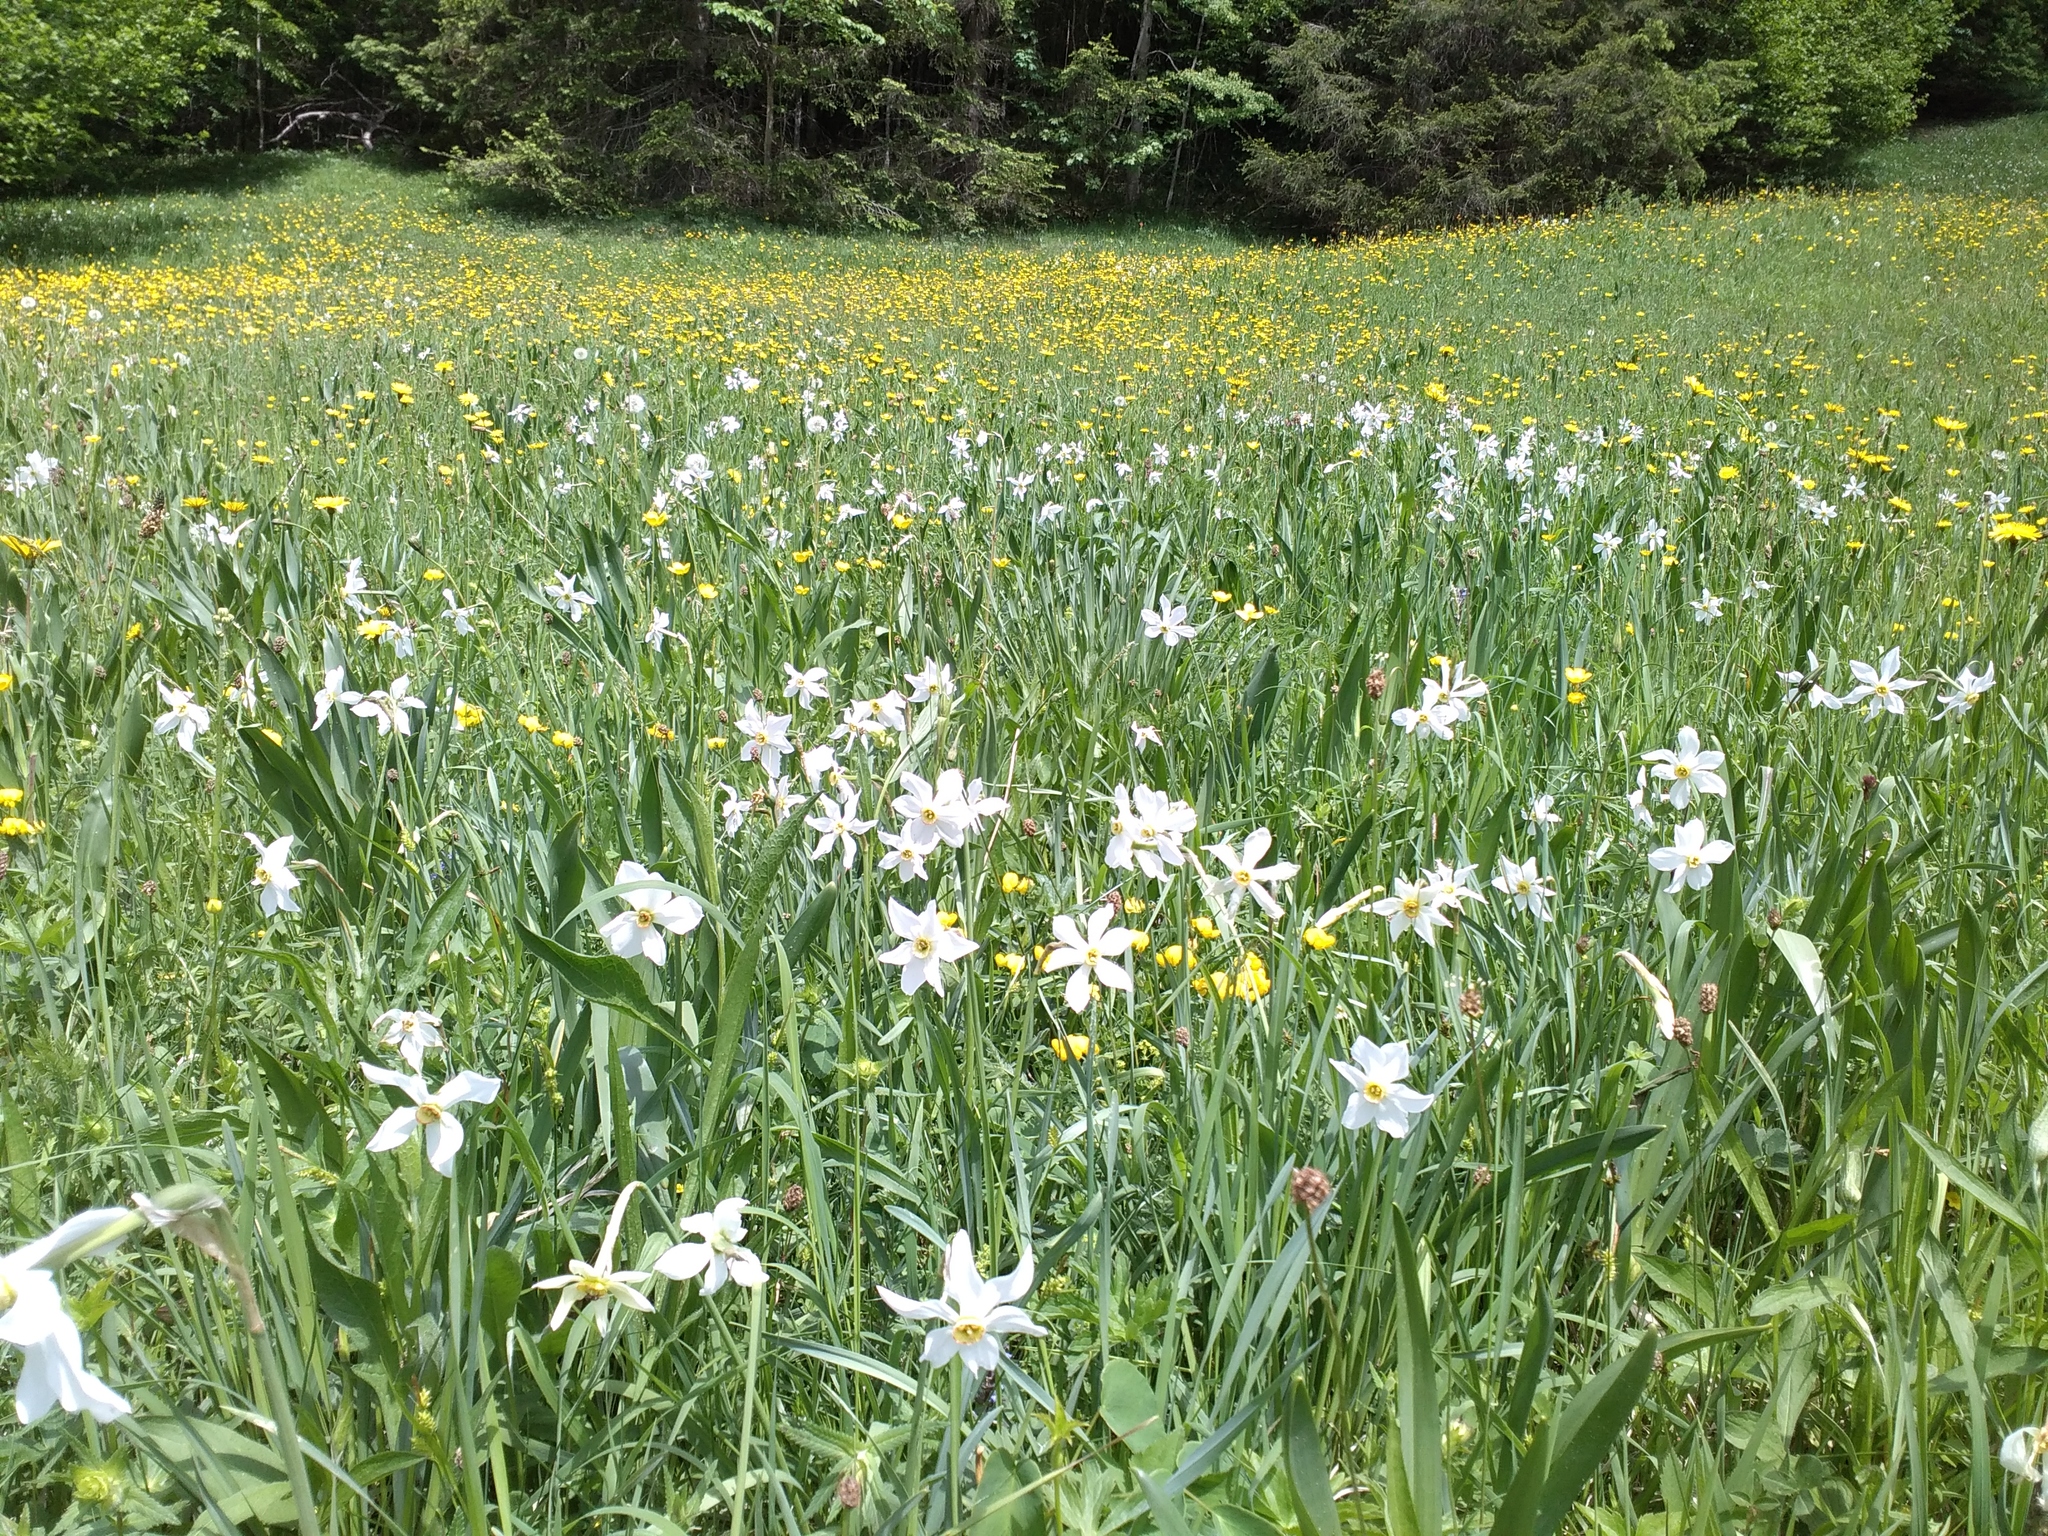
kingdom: Plantae
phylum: Tracheophyta
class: Liliopsida
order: Asparagales
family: Amaryllidaceae
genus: Narcissus
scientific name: Narcissus poeticus
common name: Pheasant's-eye daffodil
